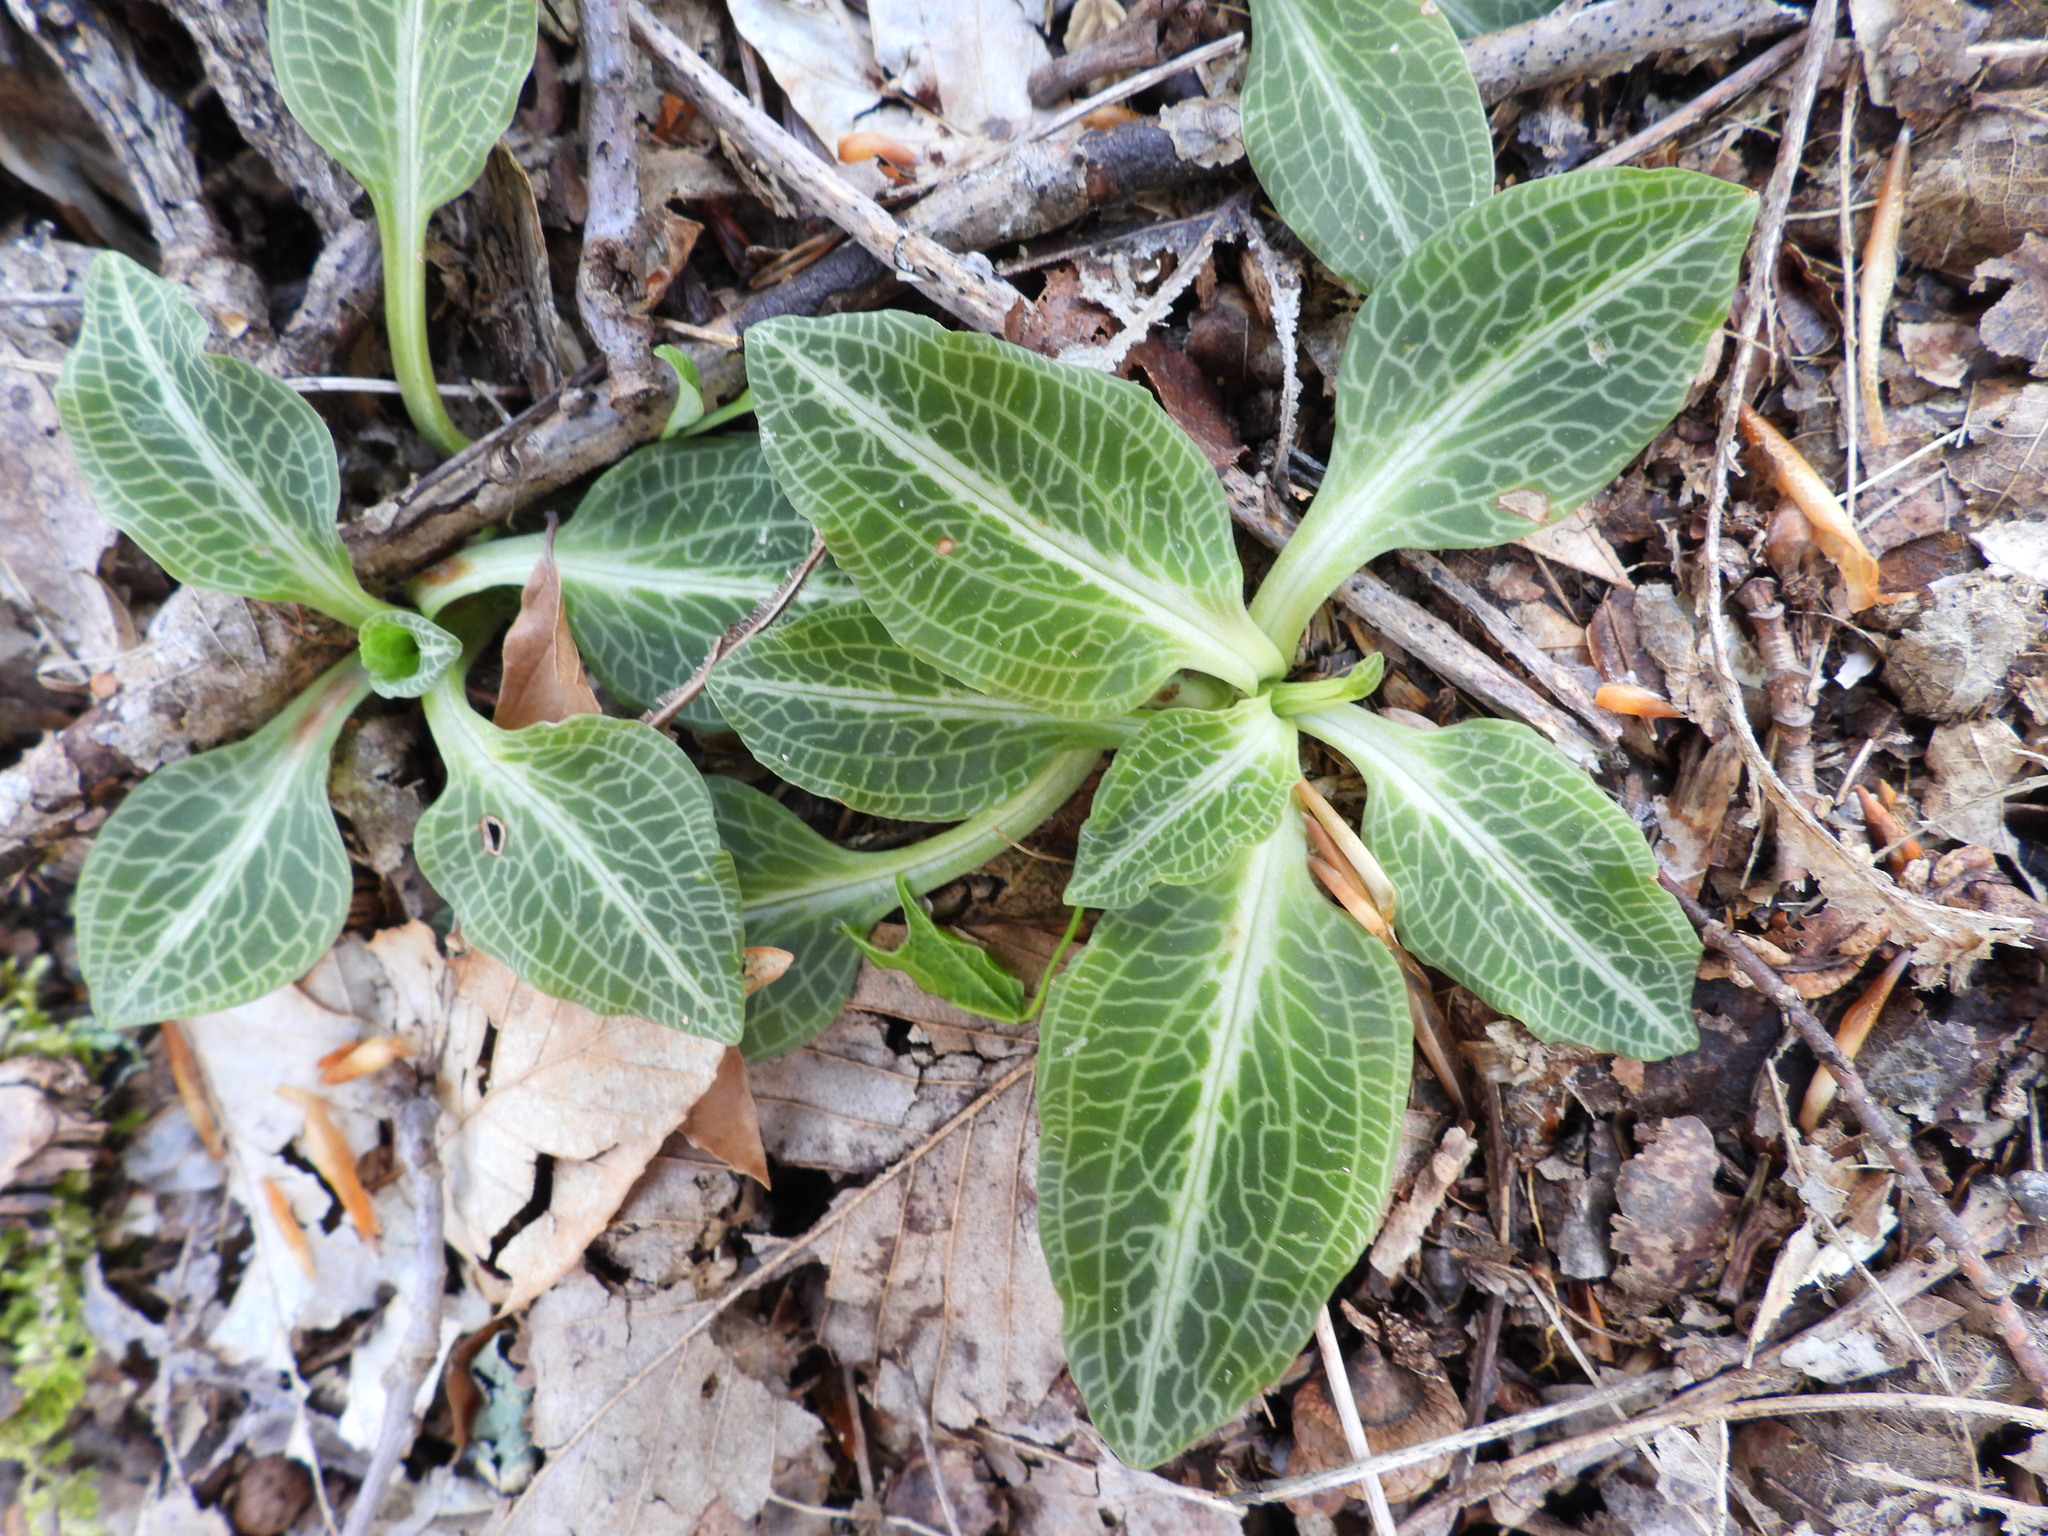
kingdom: Plantae
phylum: Tracheophyta
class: Liliopsida
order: Asparagales
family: Orchidaceae
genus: Goodyera
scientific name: Goodyera pubescens
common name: Downy rattlesnake-plantain
